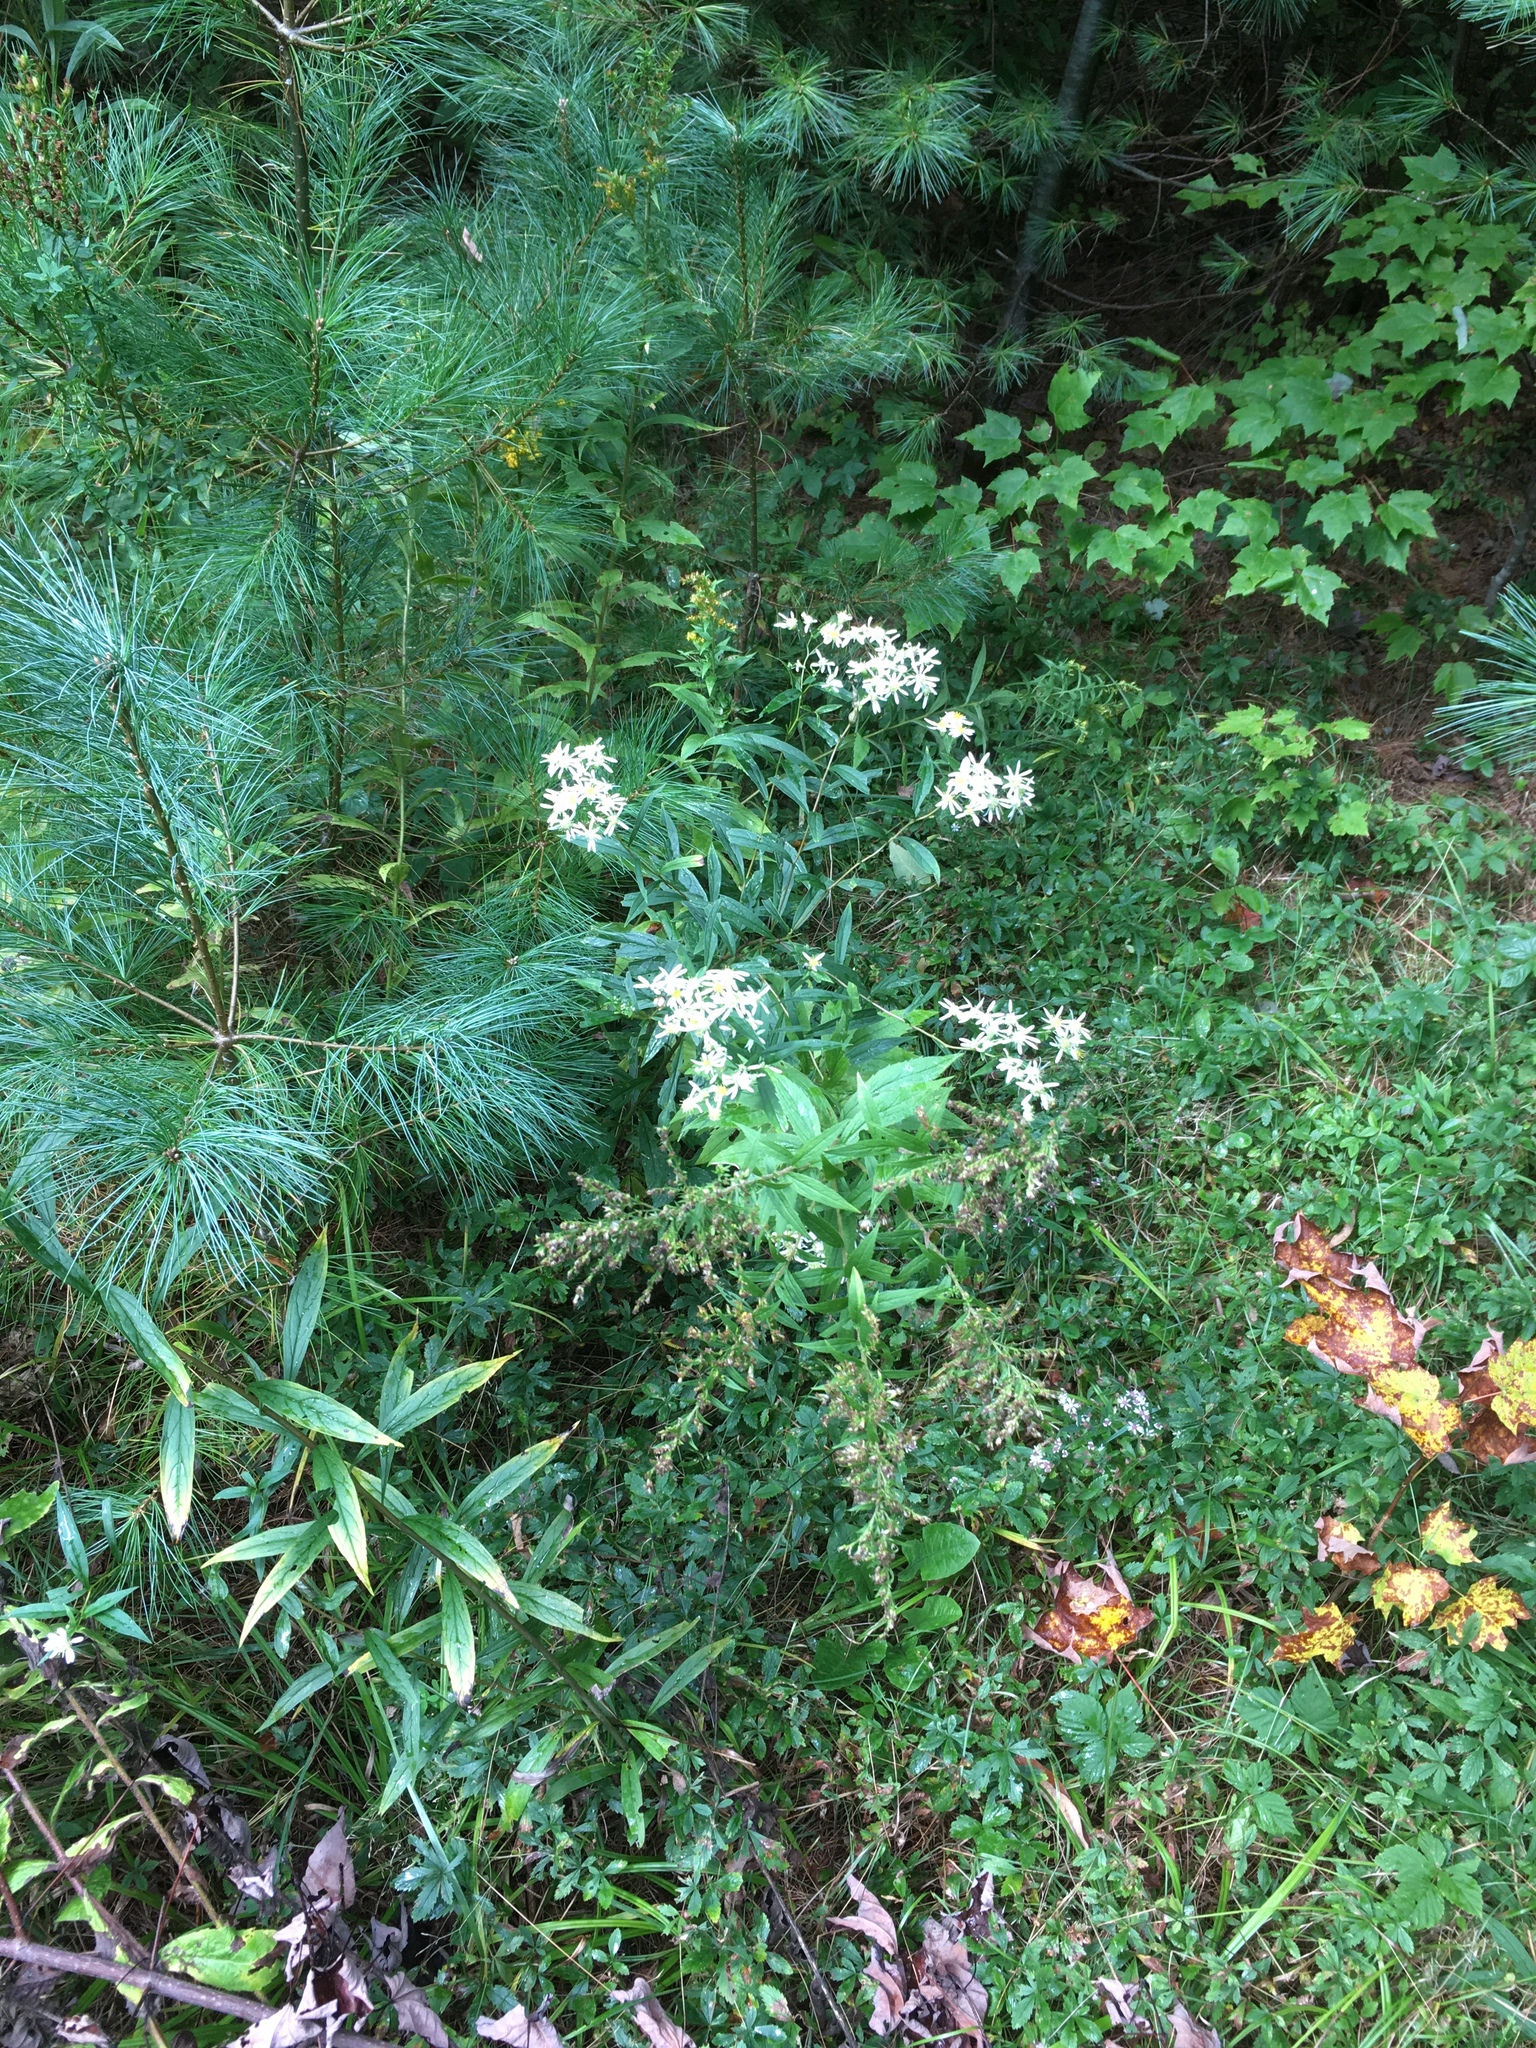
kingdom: Plantae
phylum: Tracheophyta
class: Magnoliopsida
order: Asterales
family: Asteraceae
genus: Doellingeria
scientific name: Doellingeria umbellata
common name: Flat-top white aster
